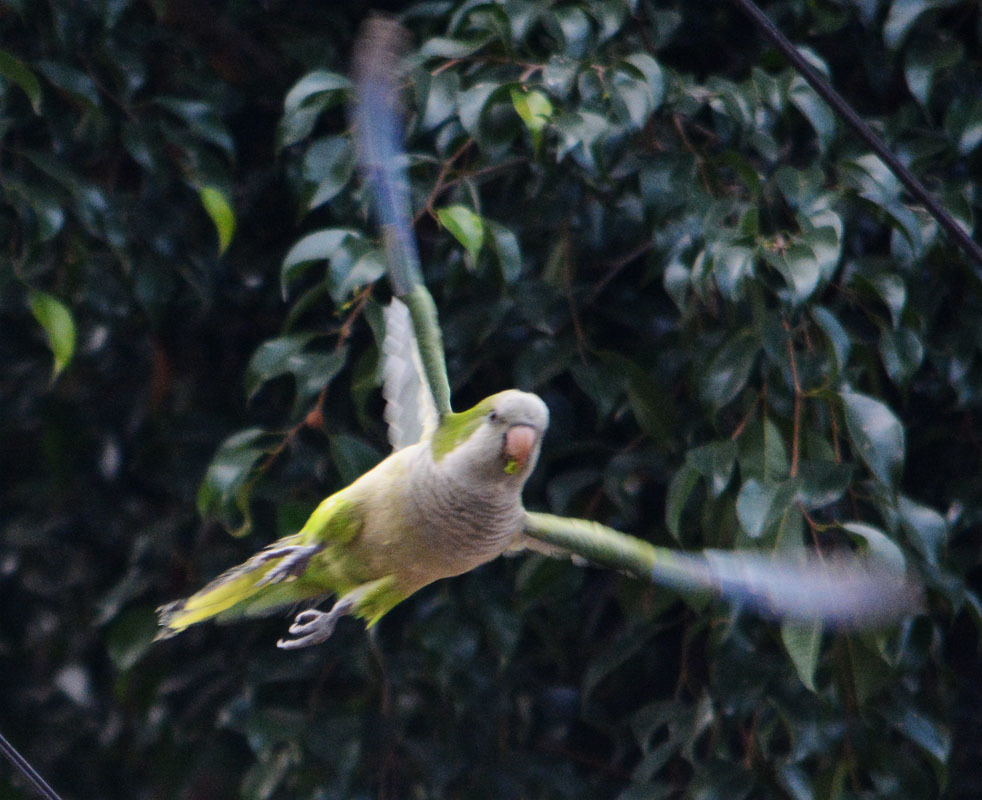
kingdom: Animalia
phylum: Chordata
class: Aves
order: Psittaciformes
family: Psittacidae
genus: Myiopsitta
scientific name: Myiopsitta monachus
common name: Monk parakeet
